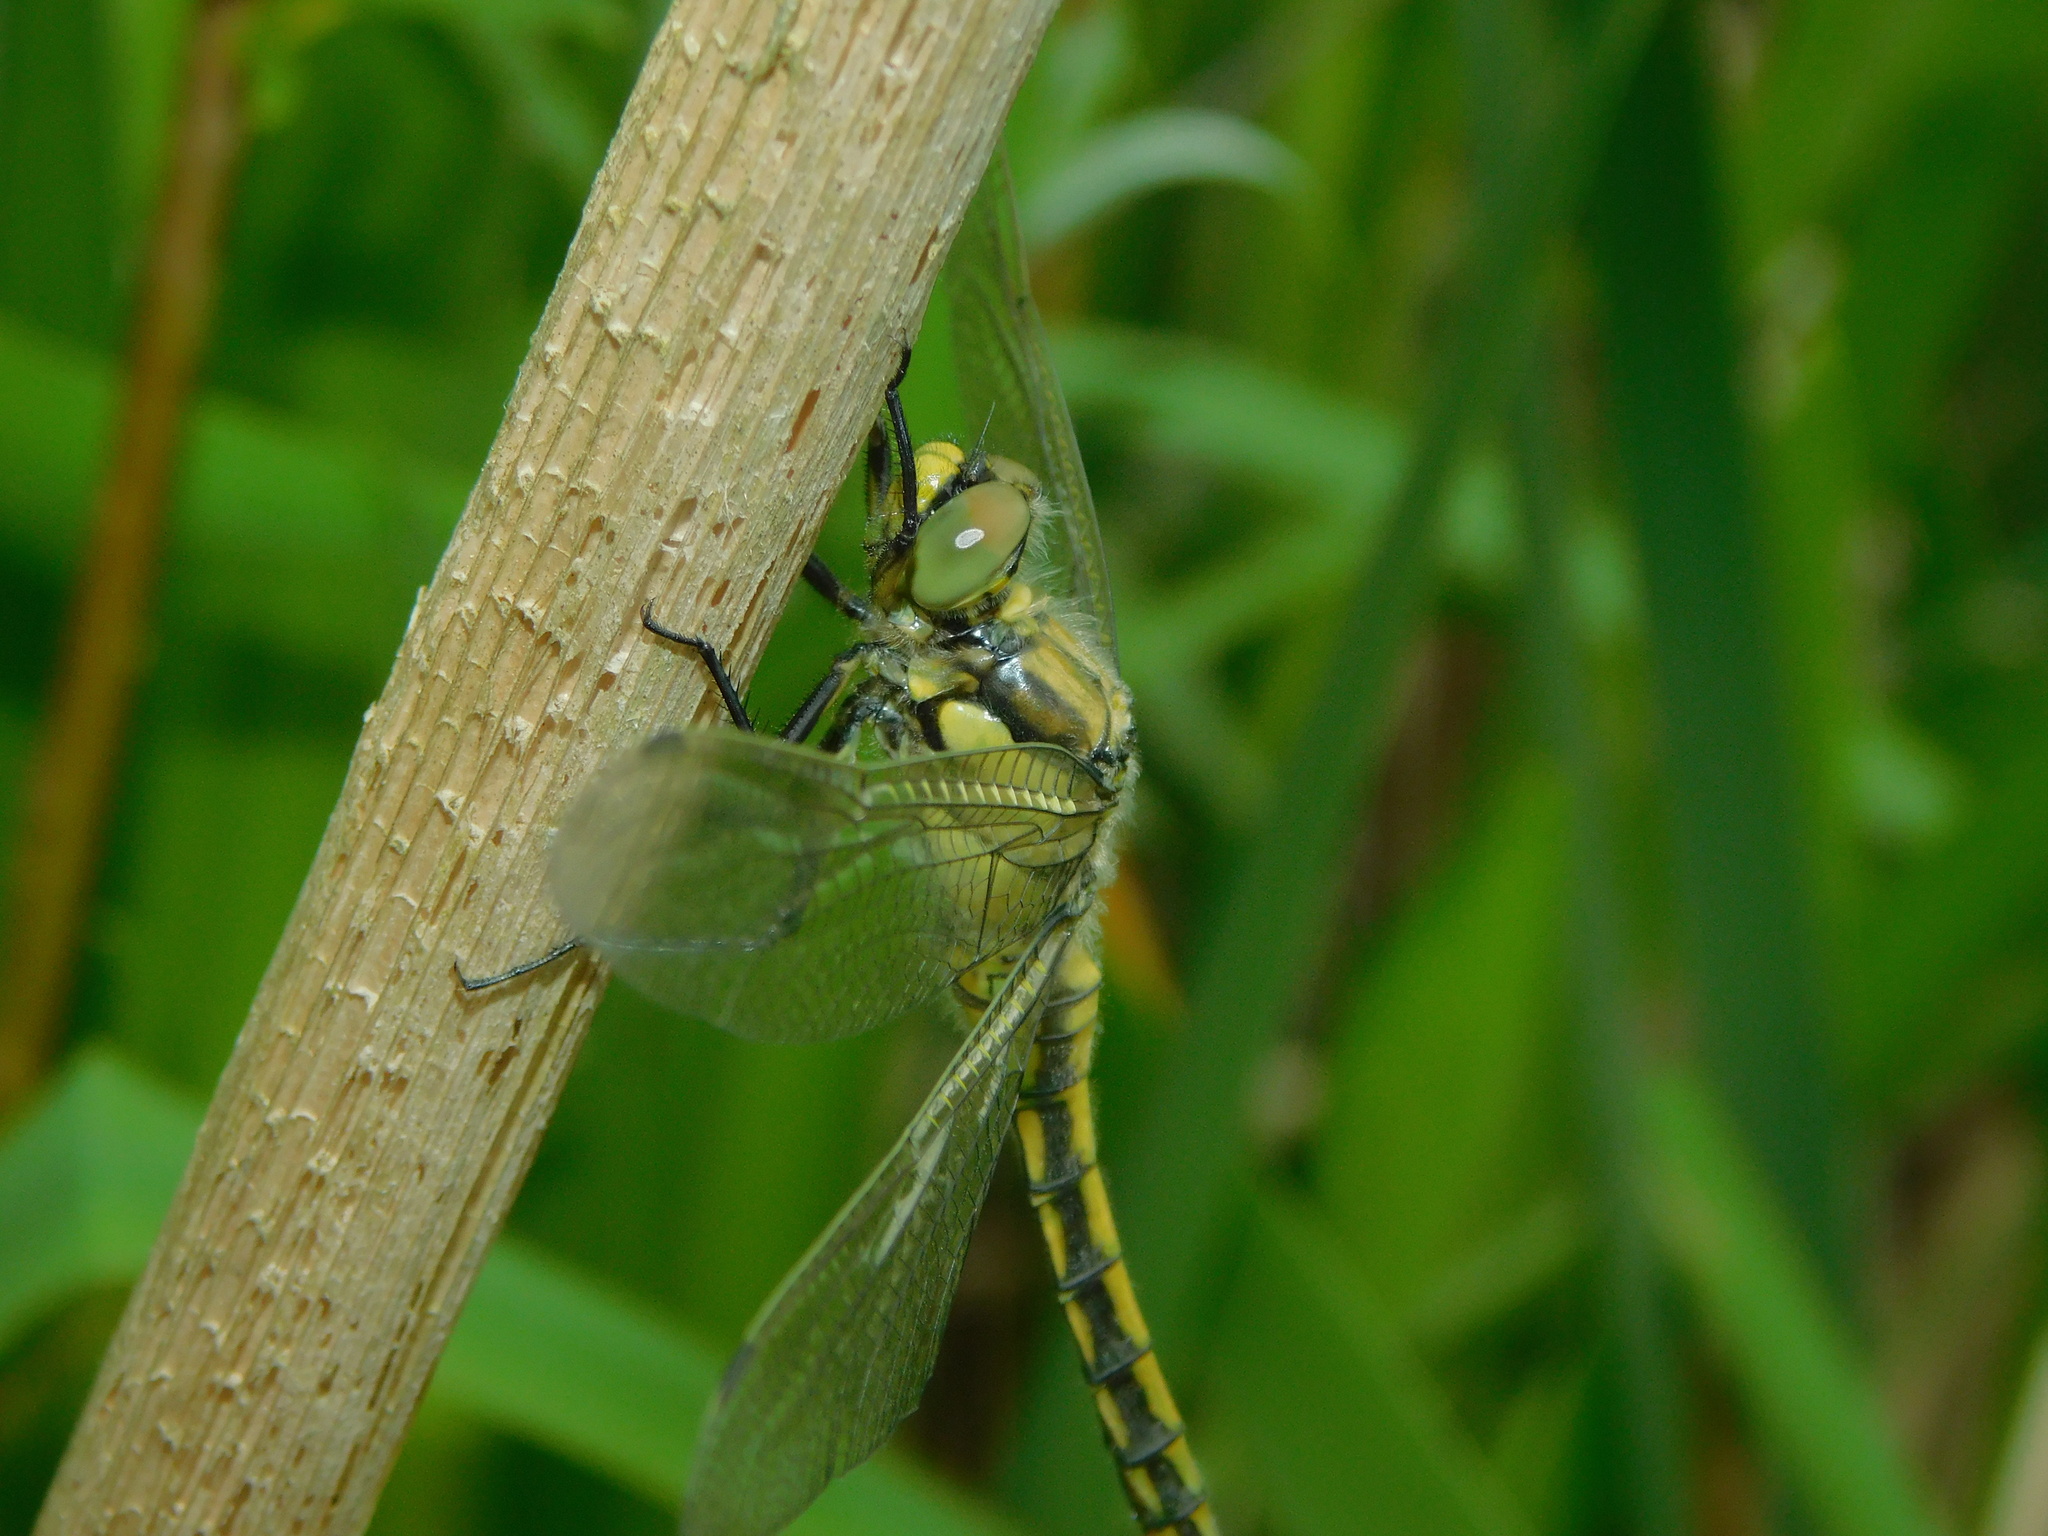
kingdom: Animalia
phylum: Arthropoda
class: Insecta
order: Odonata
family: Libellulidae
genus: Orthetrum
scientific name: Orthetrum cancellatum
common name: Black-tailed skimmer
